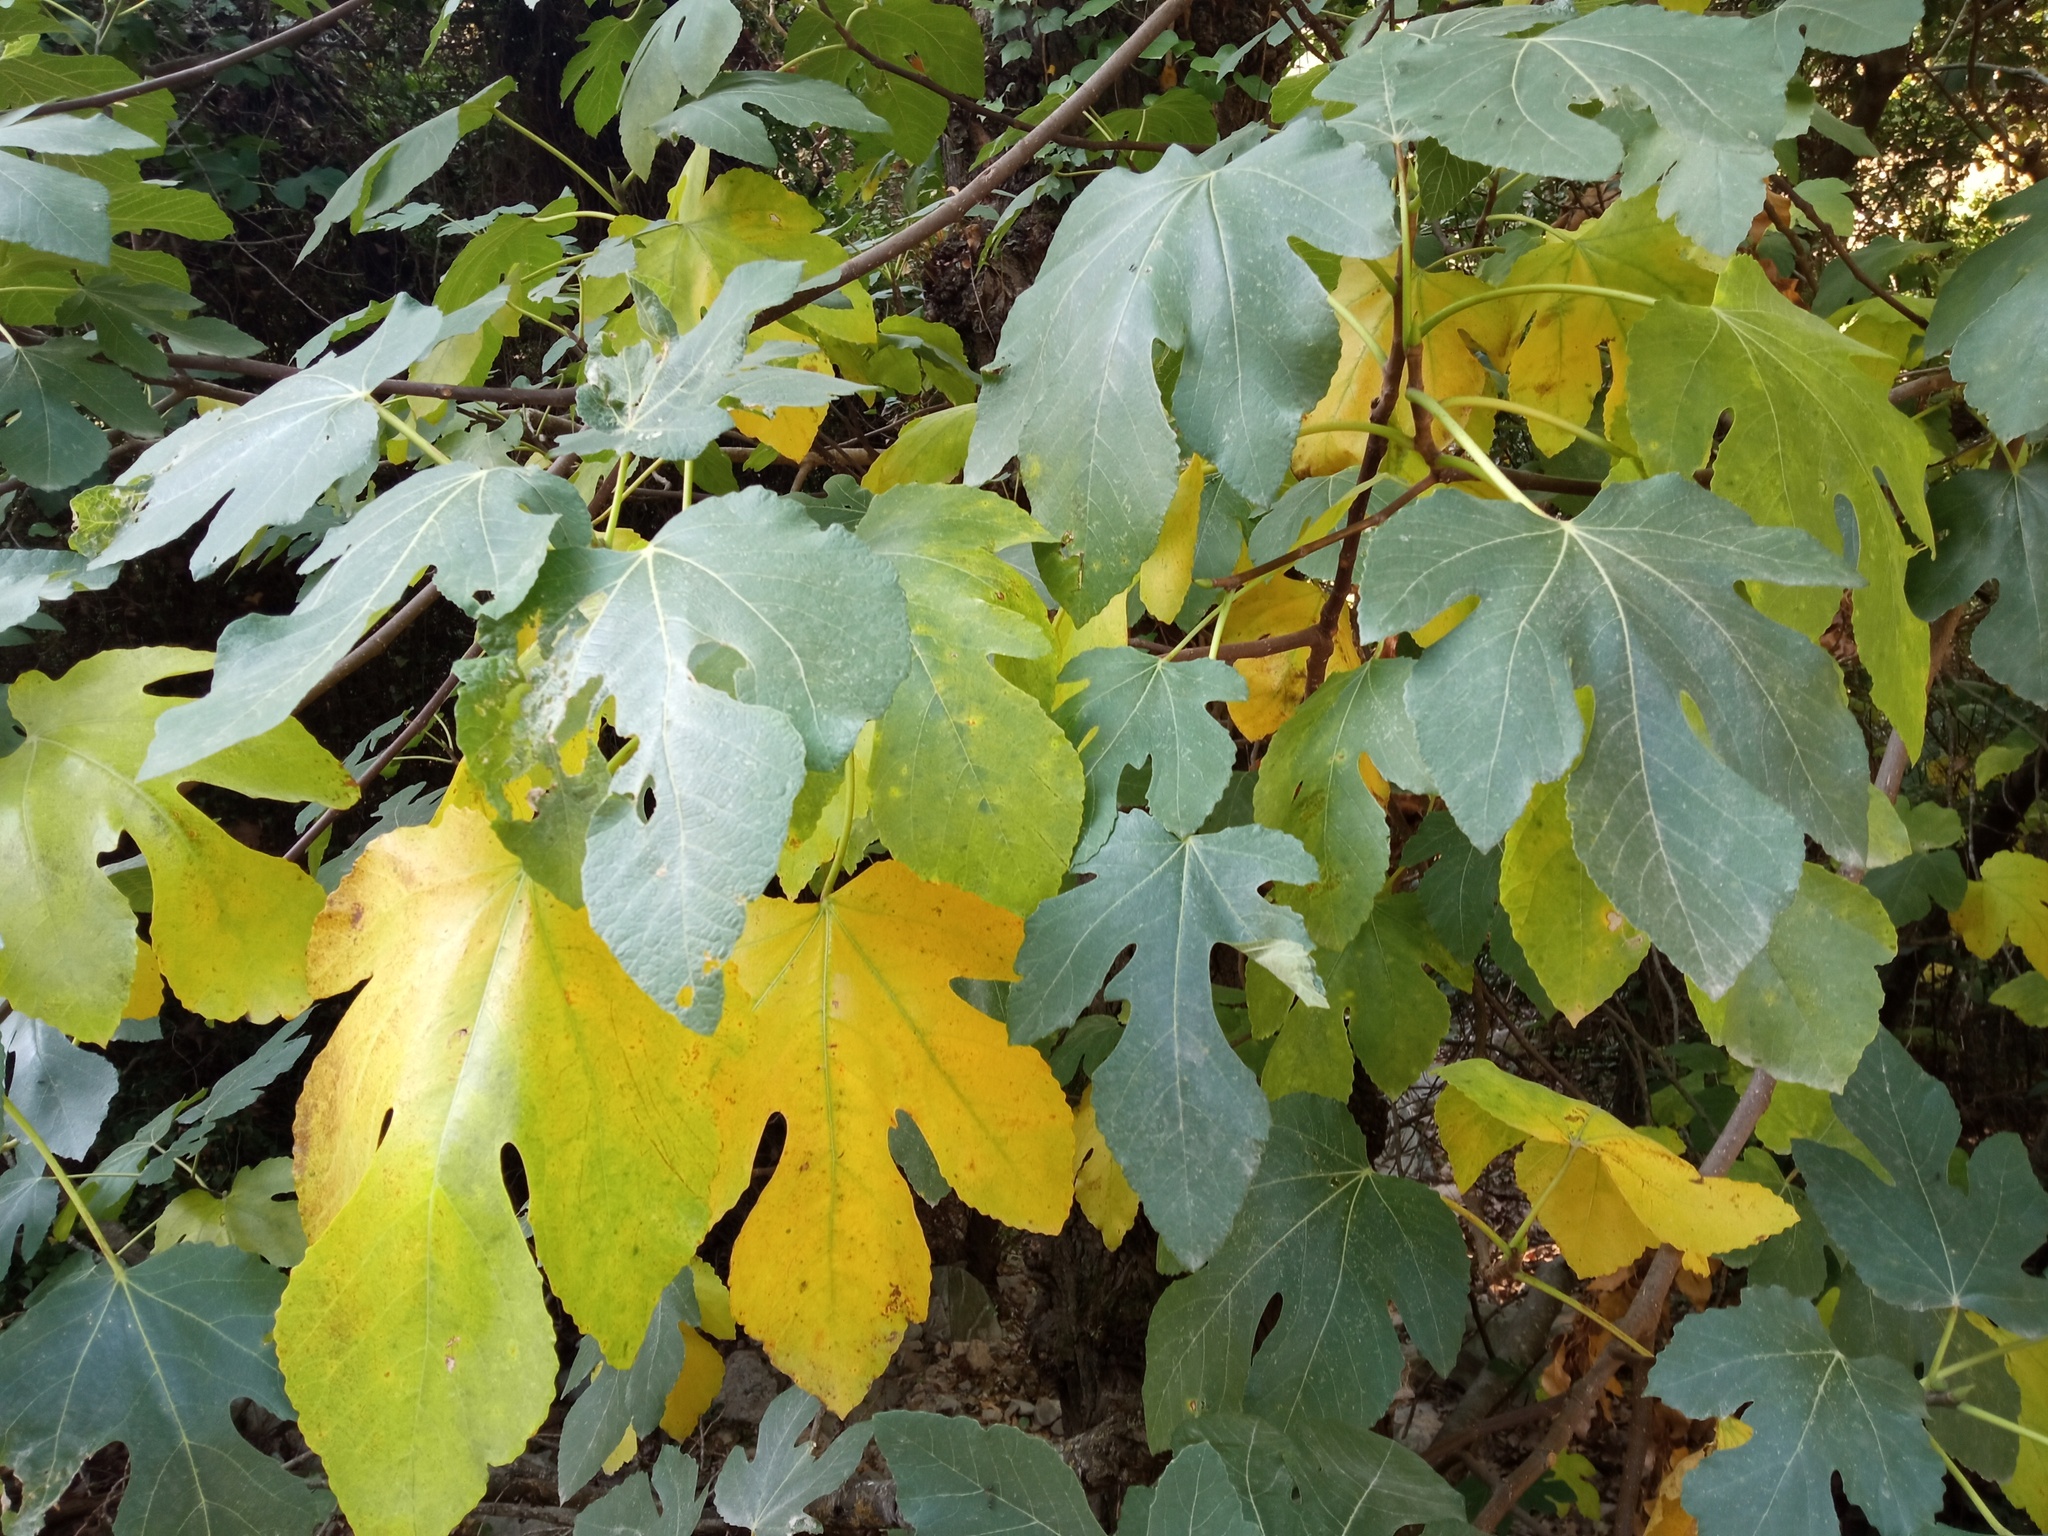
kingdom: Plantae
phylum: Tracheophyta
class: Magnoliopsida
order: Rosales
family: Moraceae
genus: Ficus
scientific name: Ficus carica
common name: Fig
